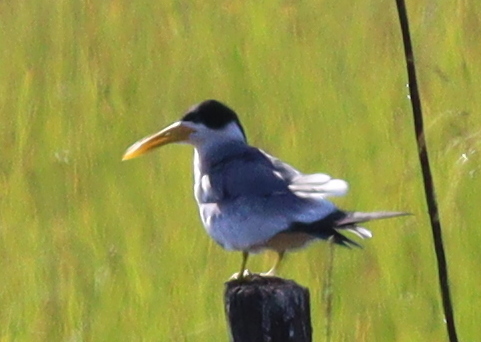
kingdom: Animalia
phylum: Chordata
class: Aves
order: Charadriiformes
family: Laridae
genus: Phaetusa
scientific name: Phaetusa simplex
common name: Large-billed tern
